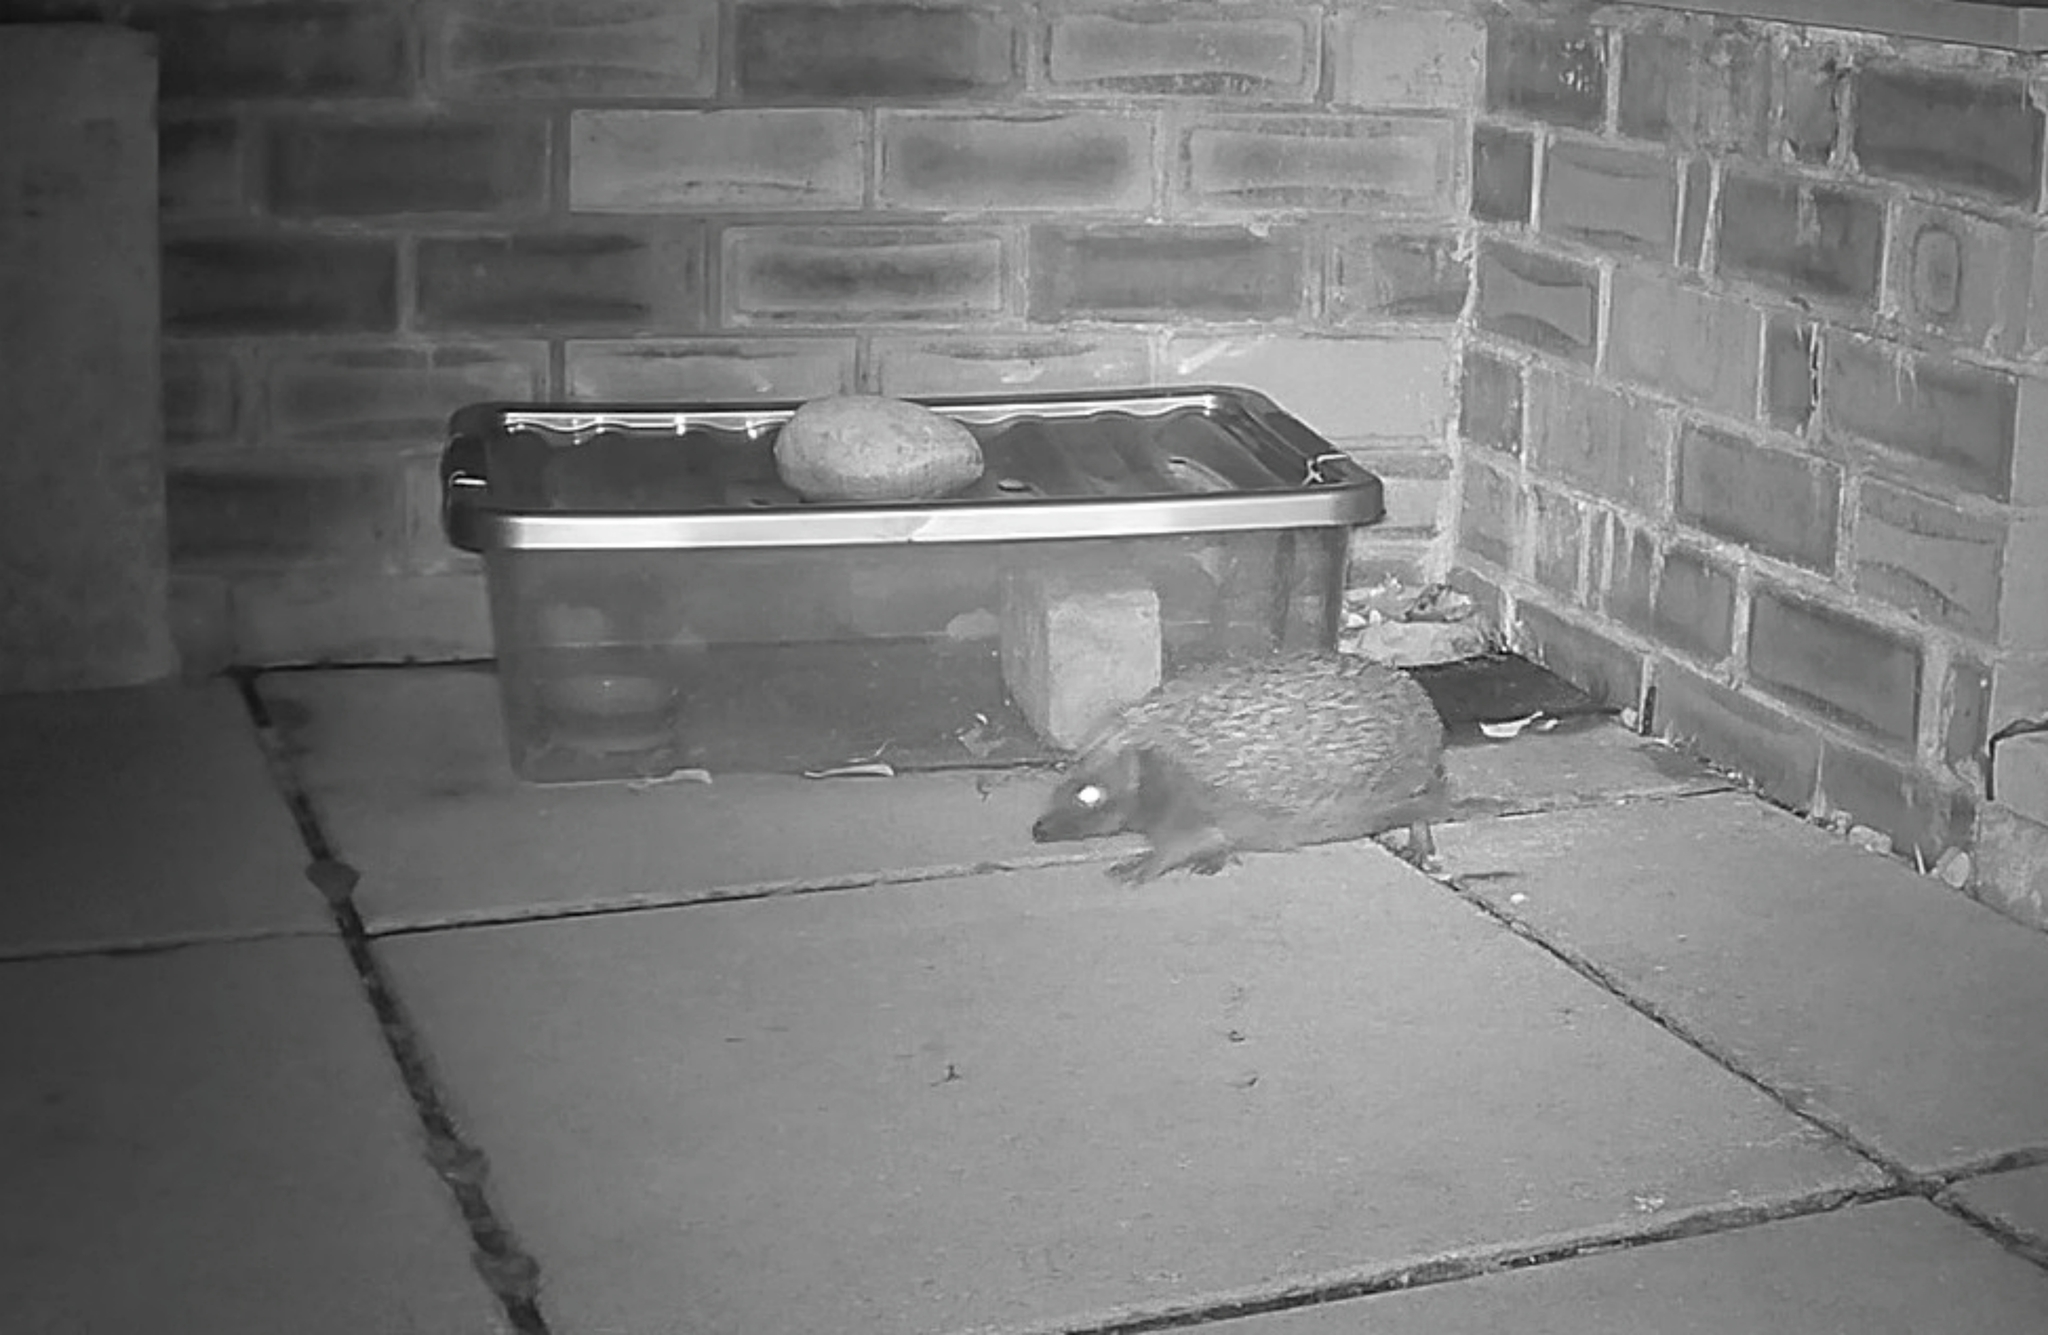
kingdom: Animalia
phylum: Chordata
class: Mammalia
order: Erinaceomorpha
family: Erinaceidae
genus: Erinaceus
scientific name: Erinaceus europaeus
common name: West european hedgehog
